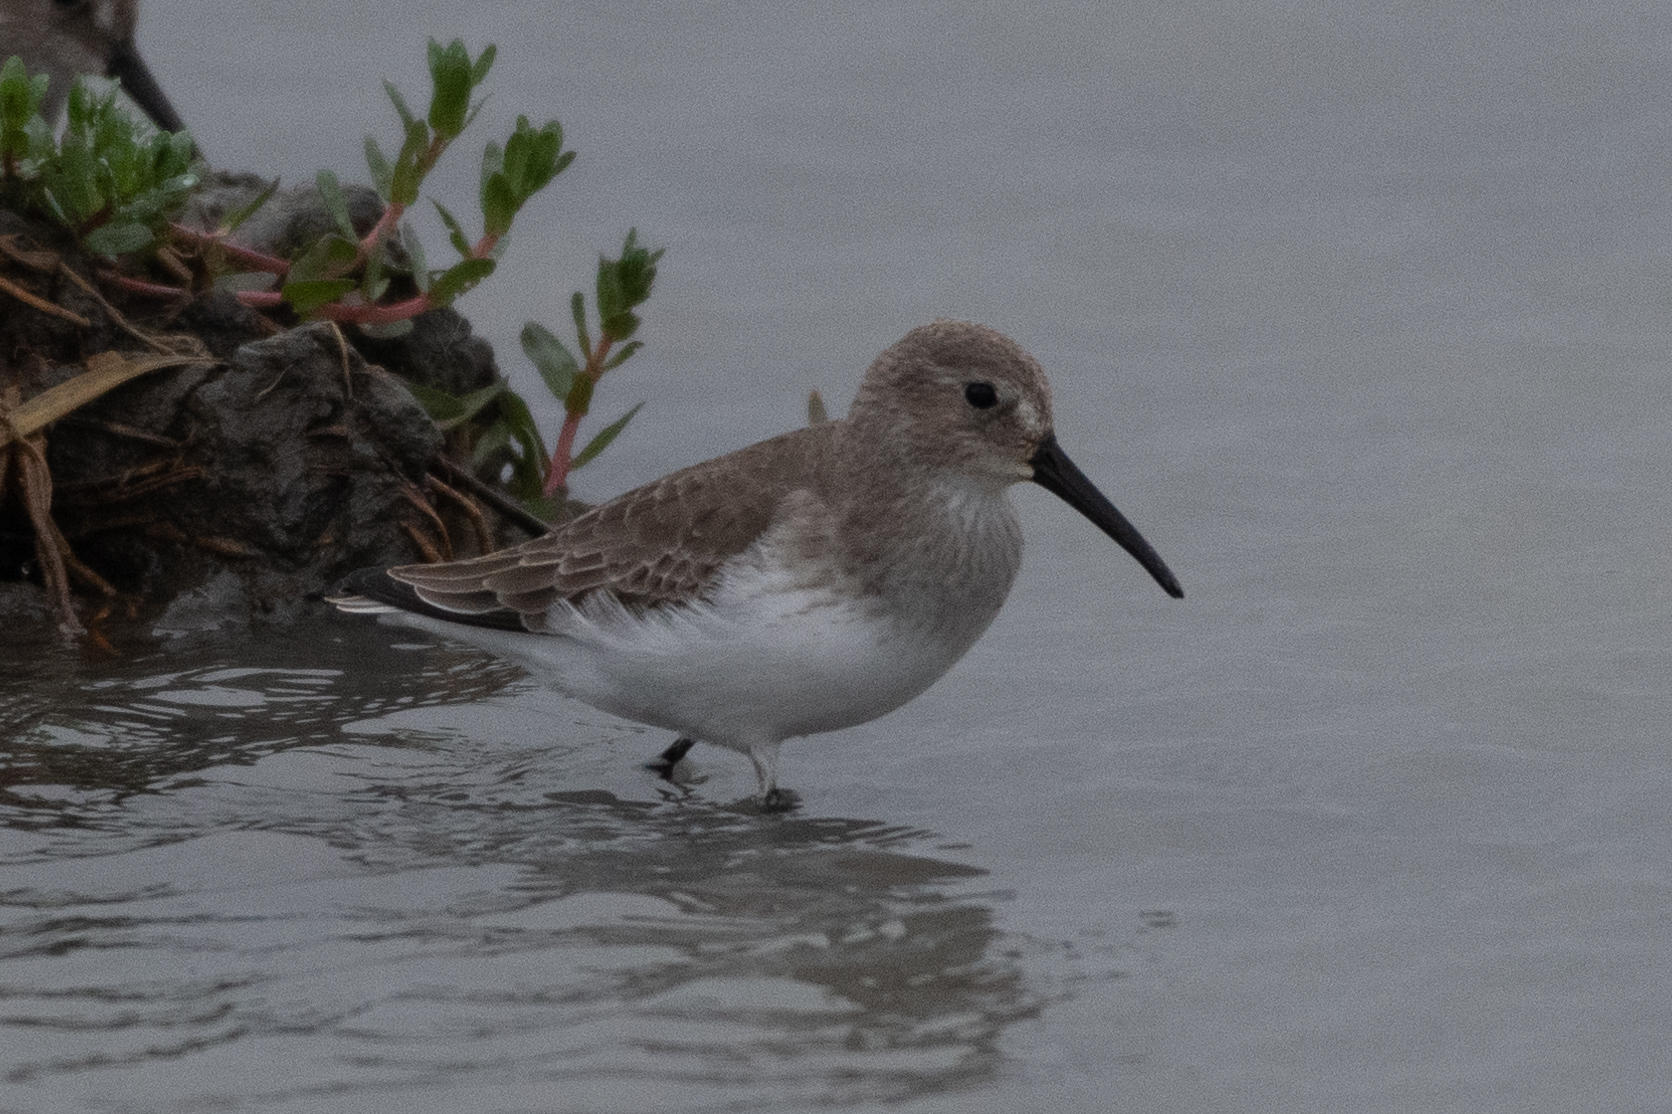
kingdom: Animalia
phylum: Chordata
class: Aves
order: Charadriiformes
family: Scolopacidae
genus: Calidris
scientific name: Calidris alpina
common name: Dunlin
